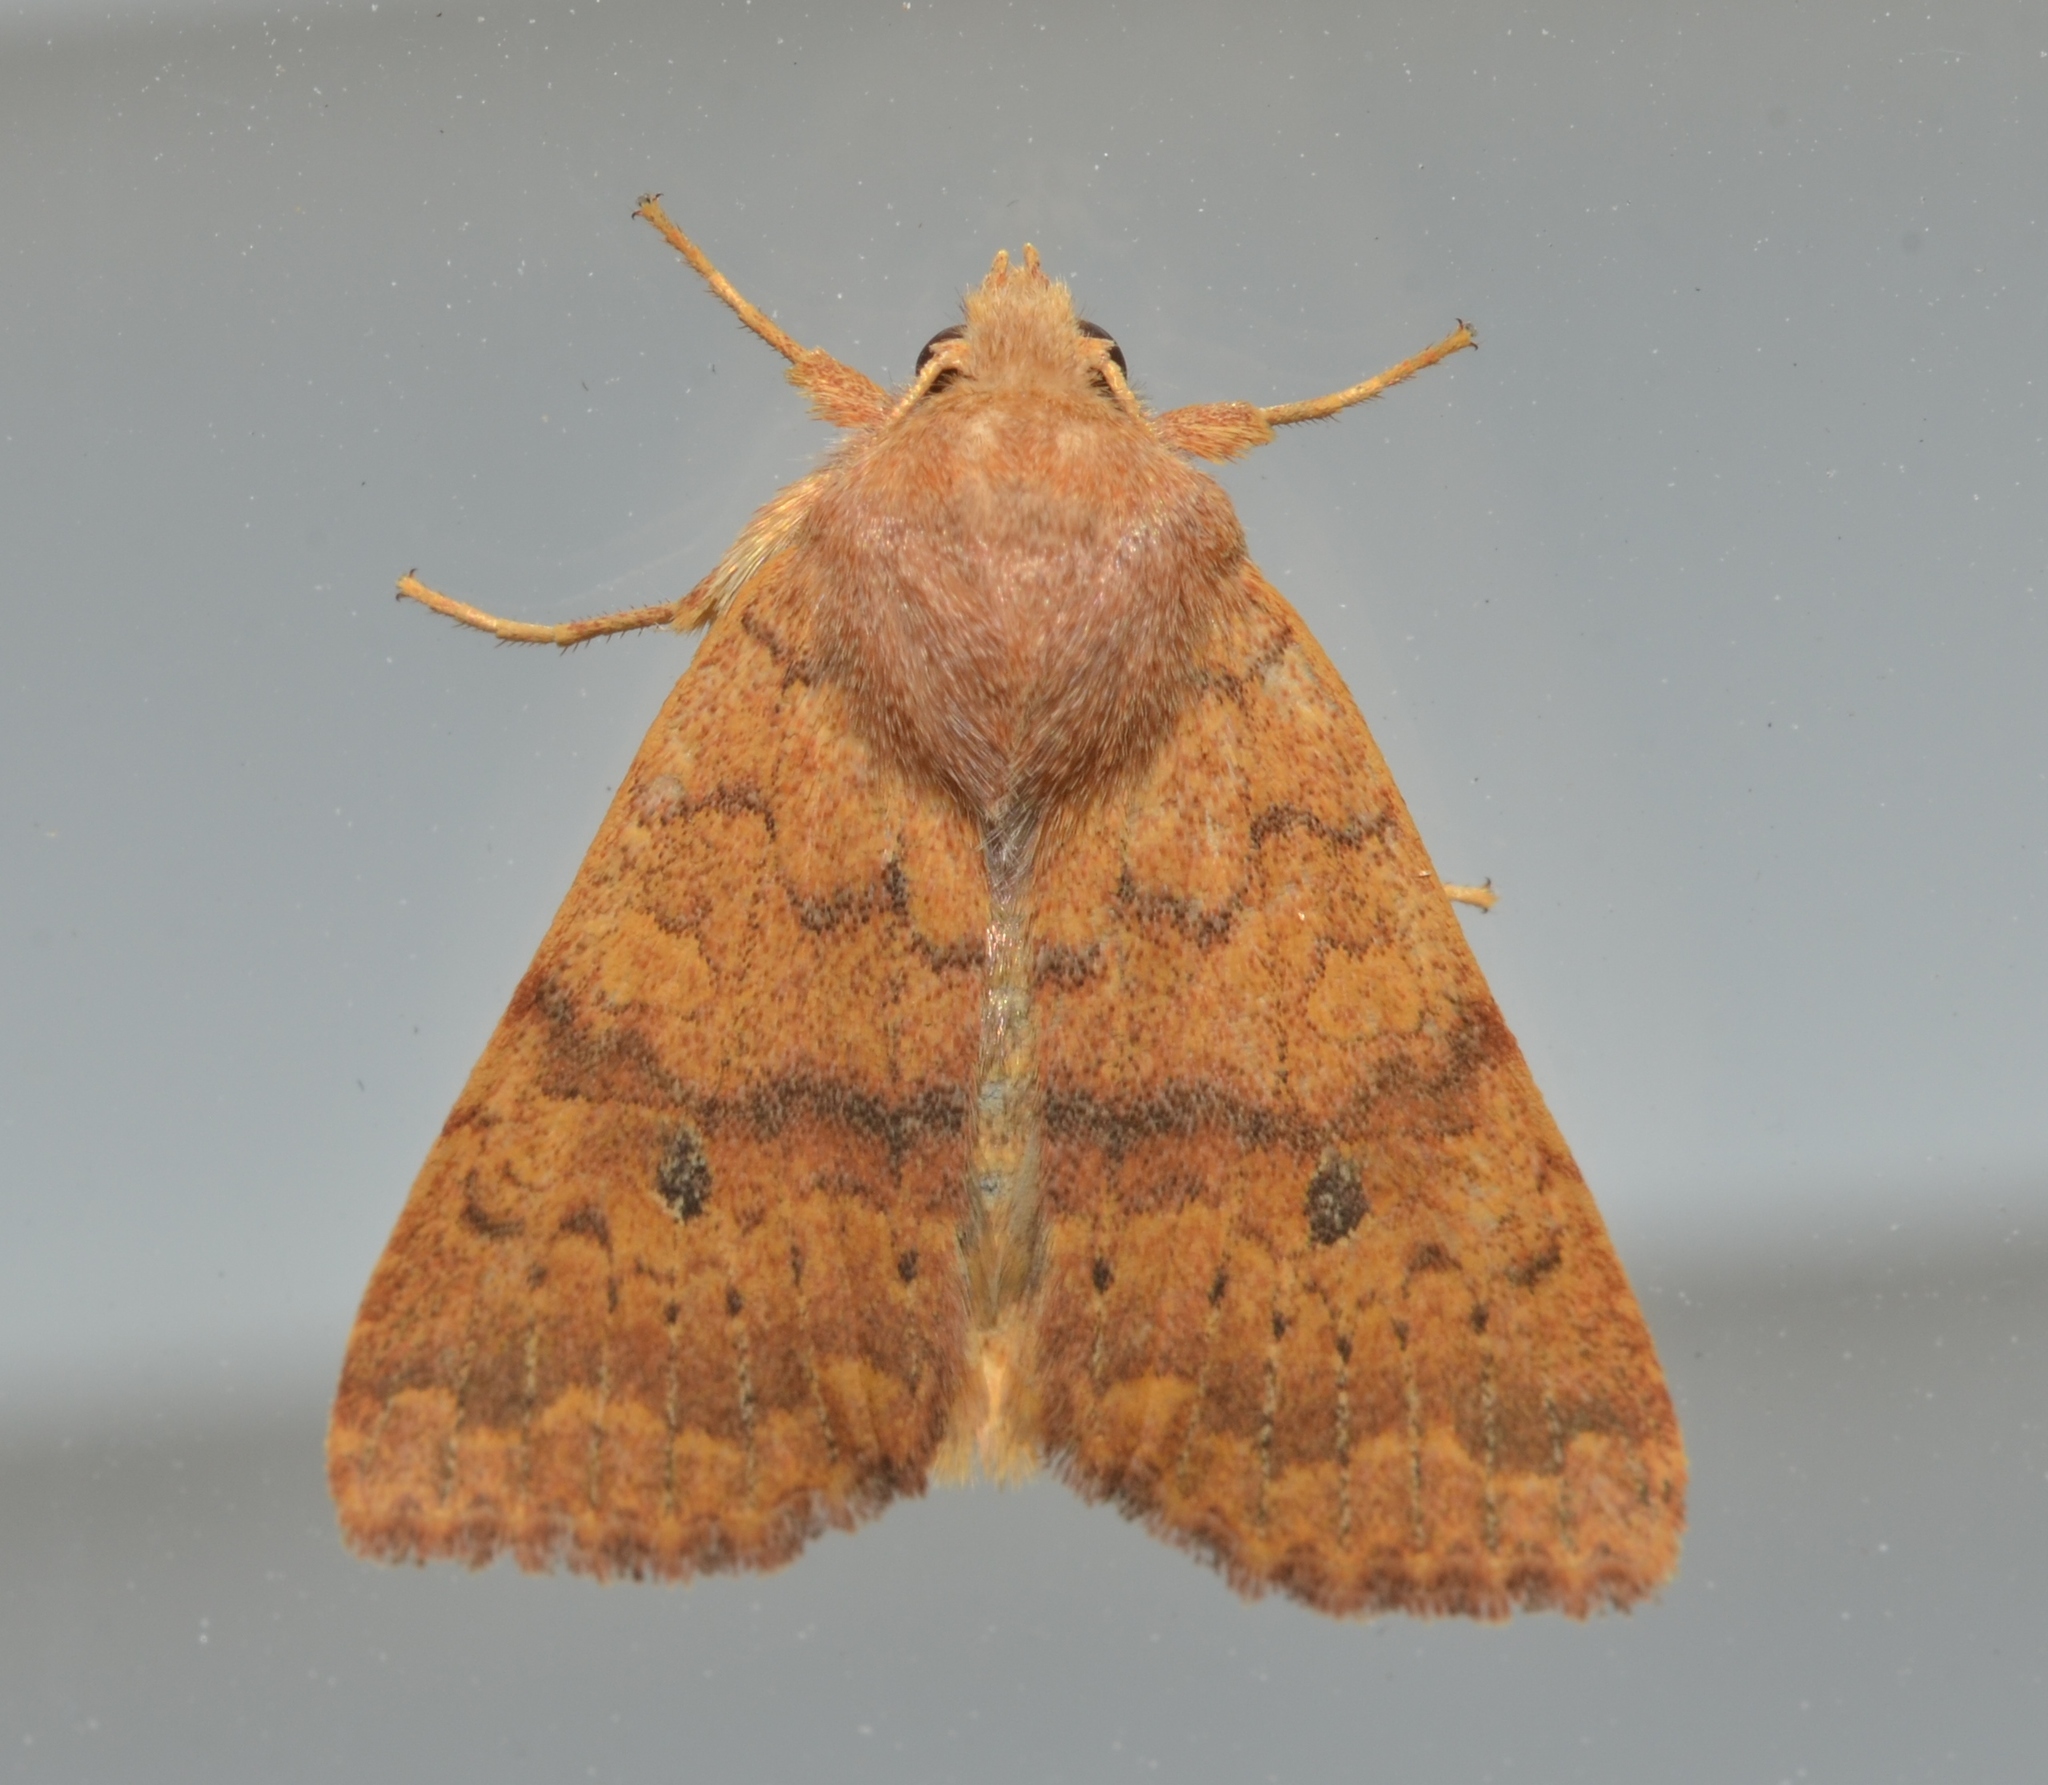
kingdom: Animalia
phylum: Arthropoda
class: Insecta
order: Lepidoptera
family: Noctuidae
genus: Agrochola
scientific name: Agrochola bicolorago
